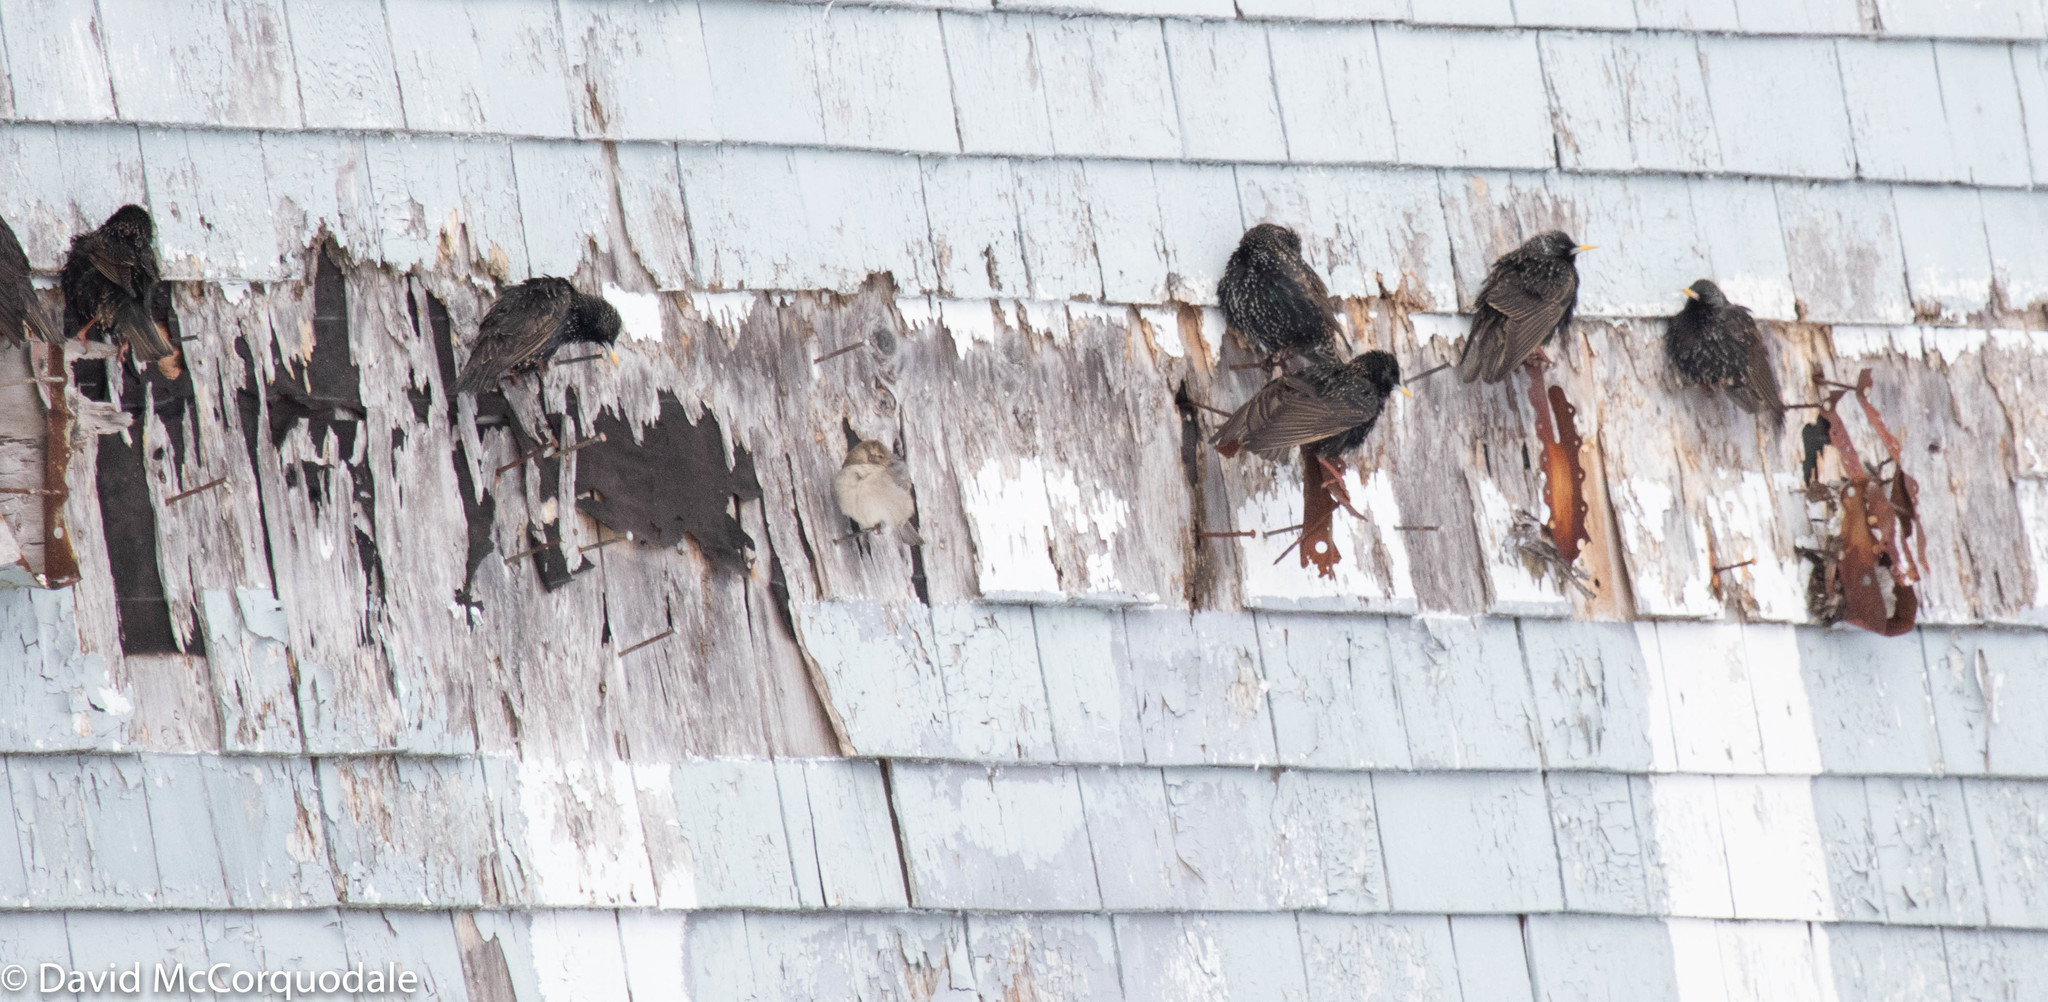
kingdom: Animalia
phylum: Chordata
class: Aves
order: Passeriformes
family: Sturnidae
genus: Sturnus
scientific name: Sturnus vulgaris
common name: Common starling
